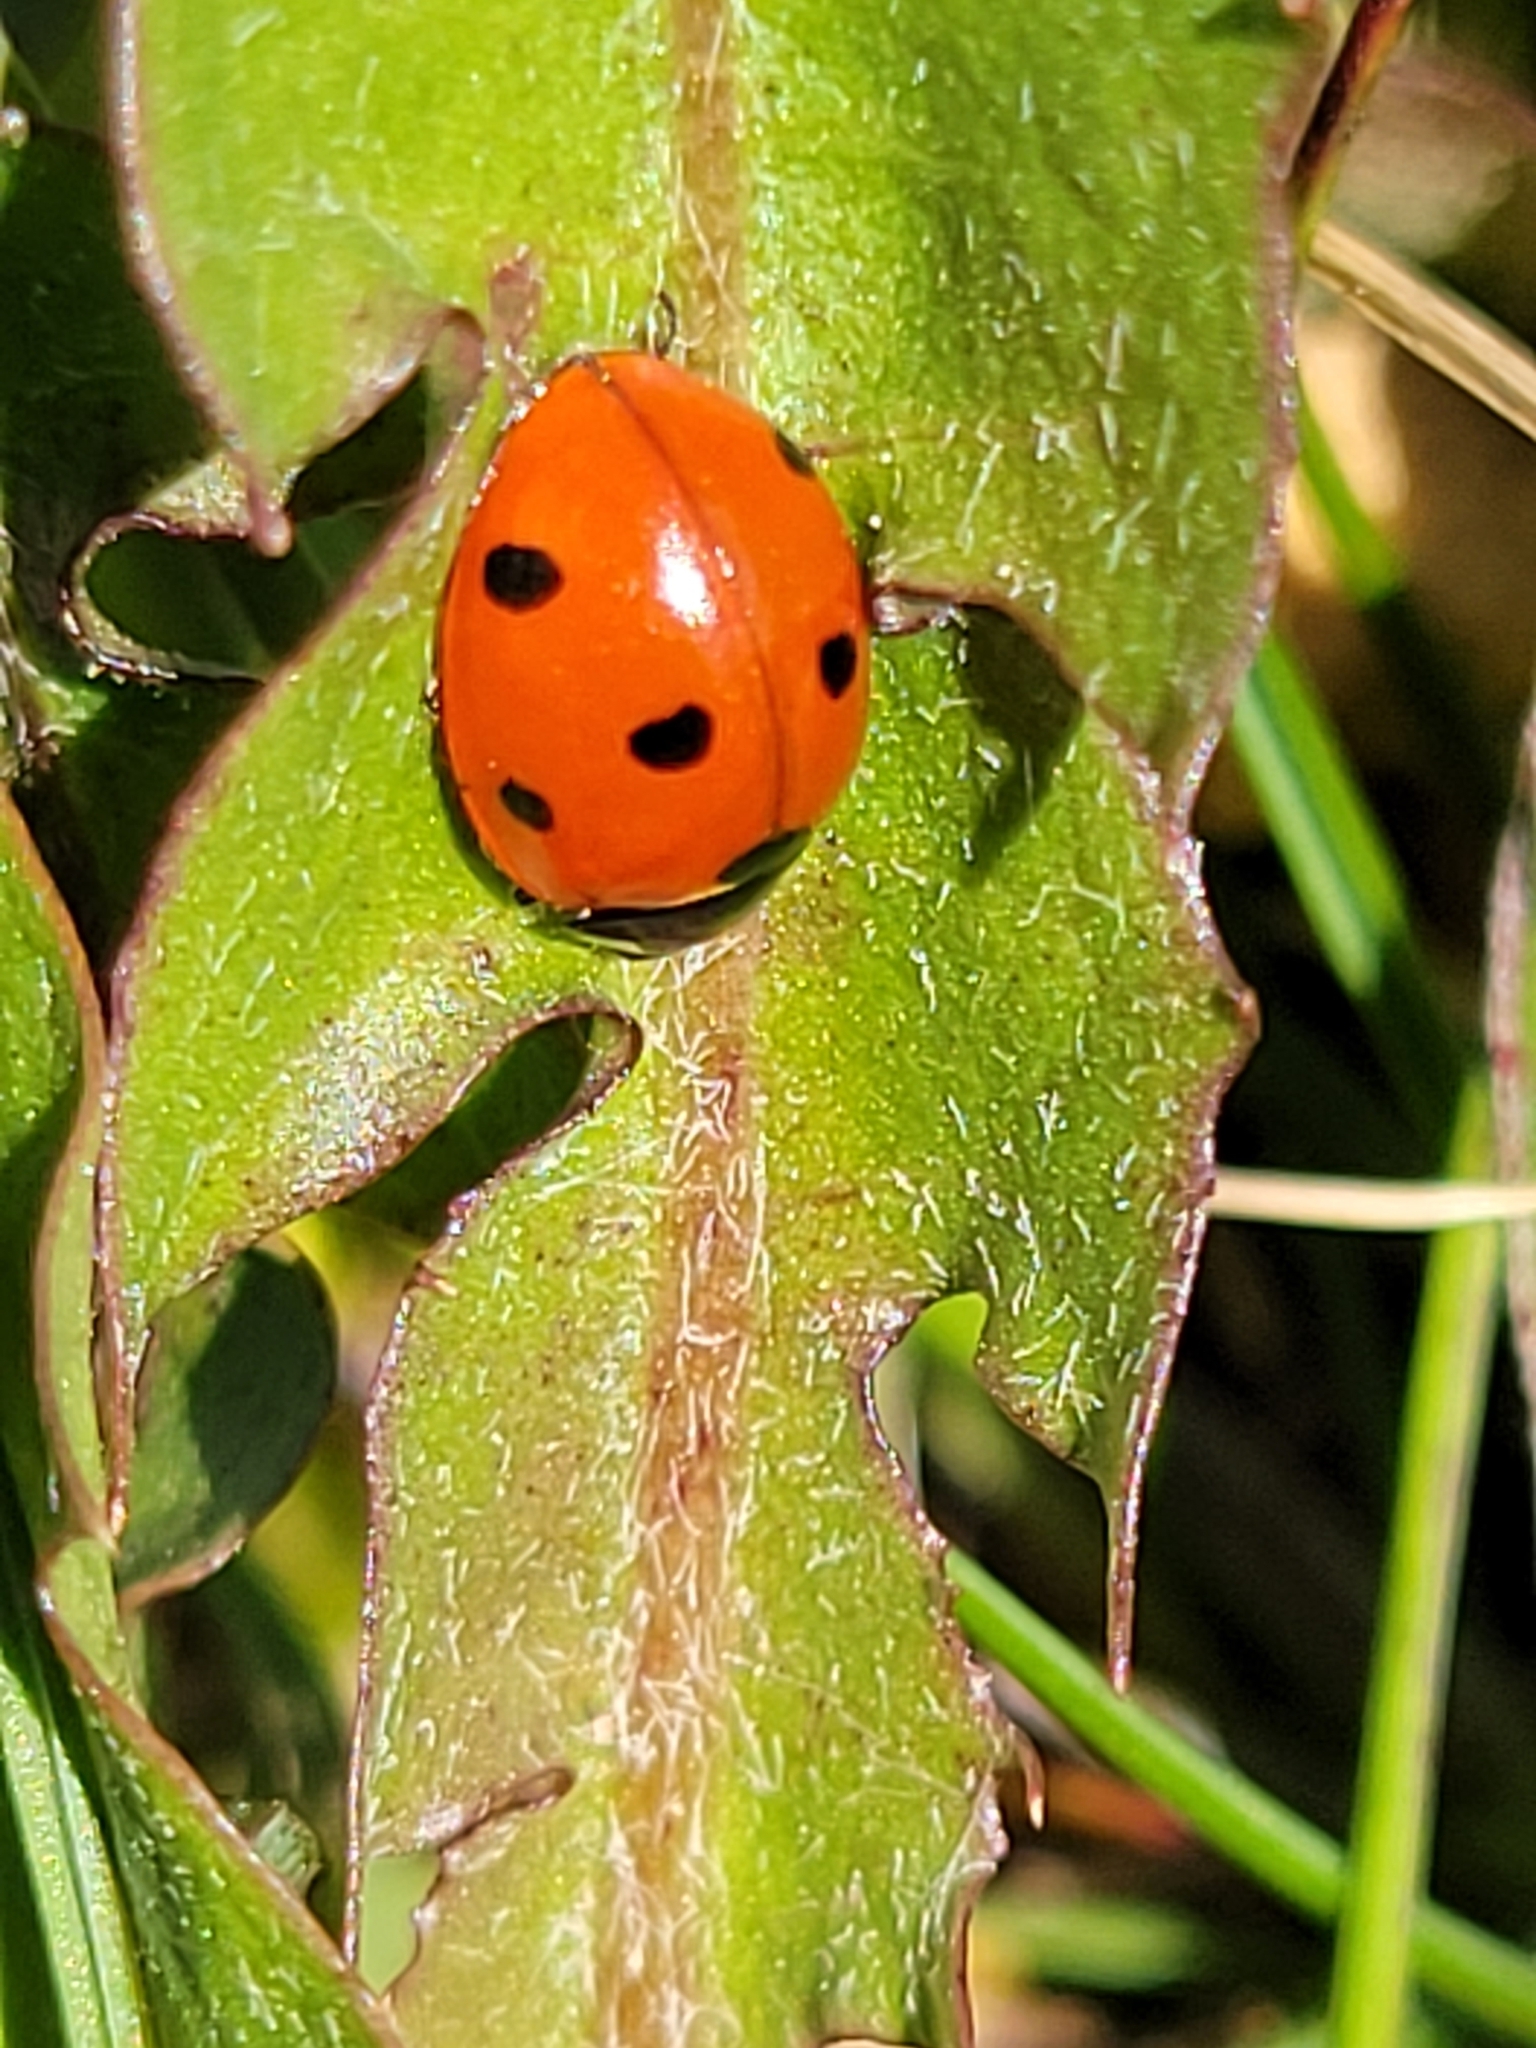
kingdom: Animalia
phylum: Arthropoda
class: Insecta
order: Coleoptera
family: Coccinellidae
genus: Coccinella
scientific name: Coccinella septempunctata
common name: Sevenspotted lady beetle
